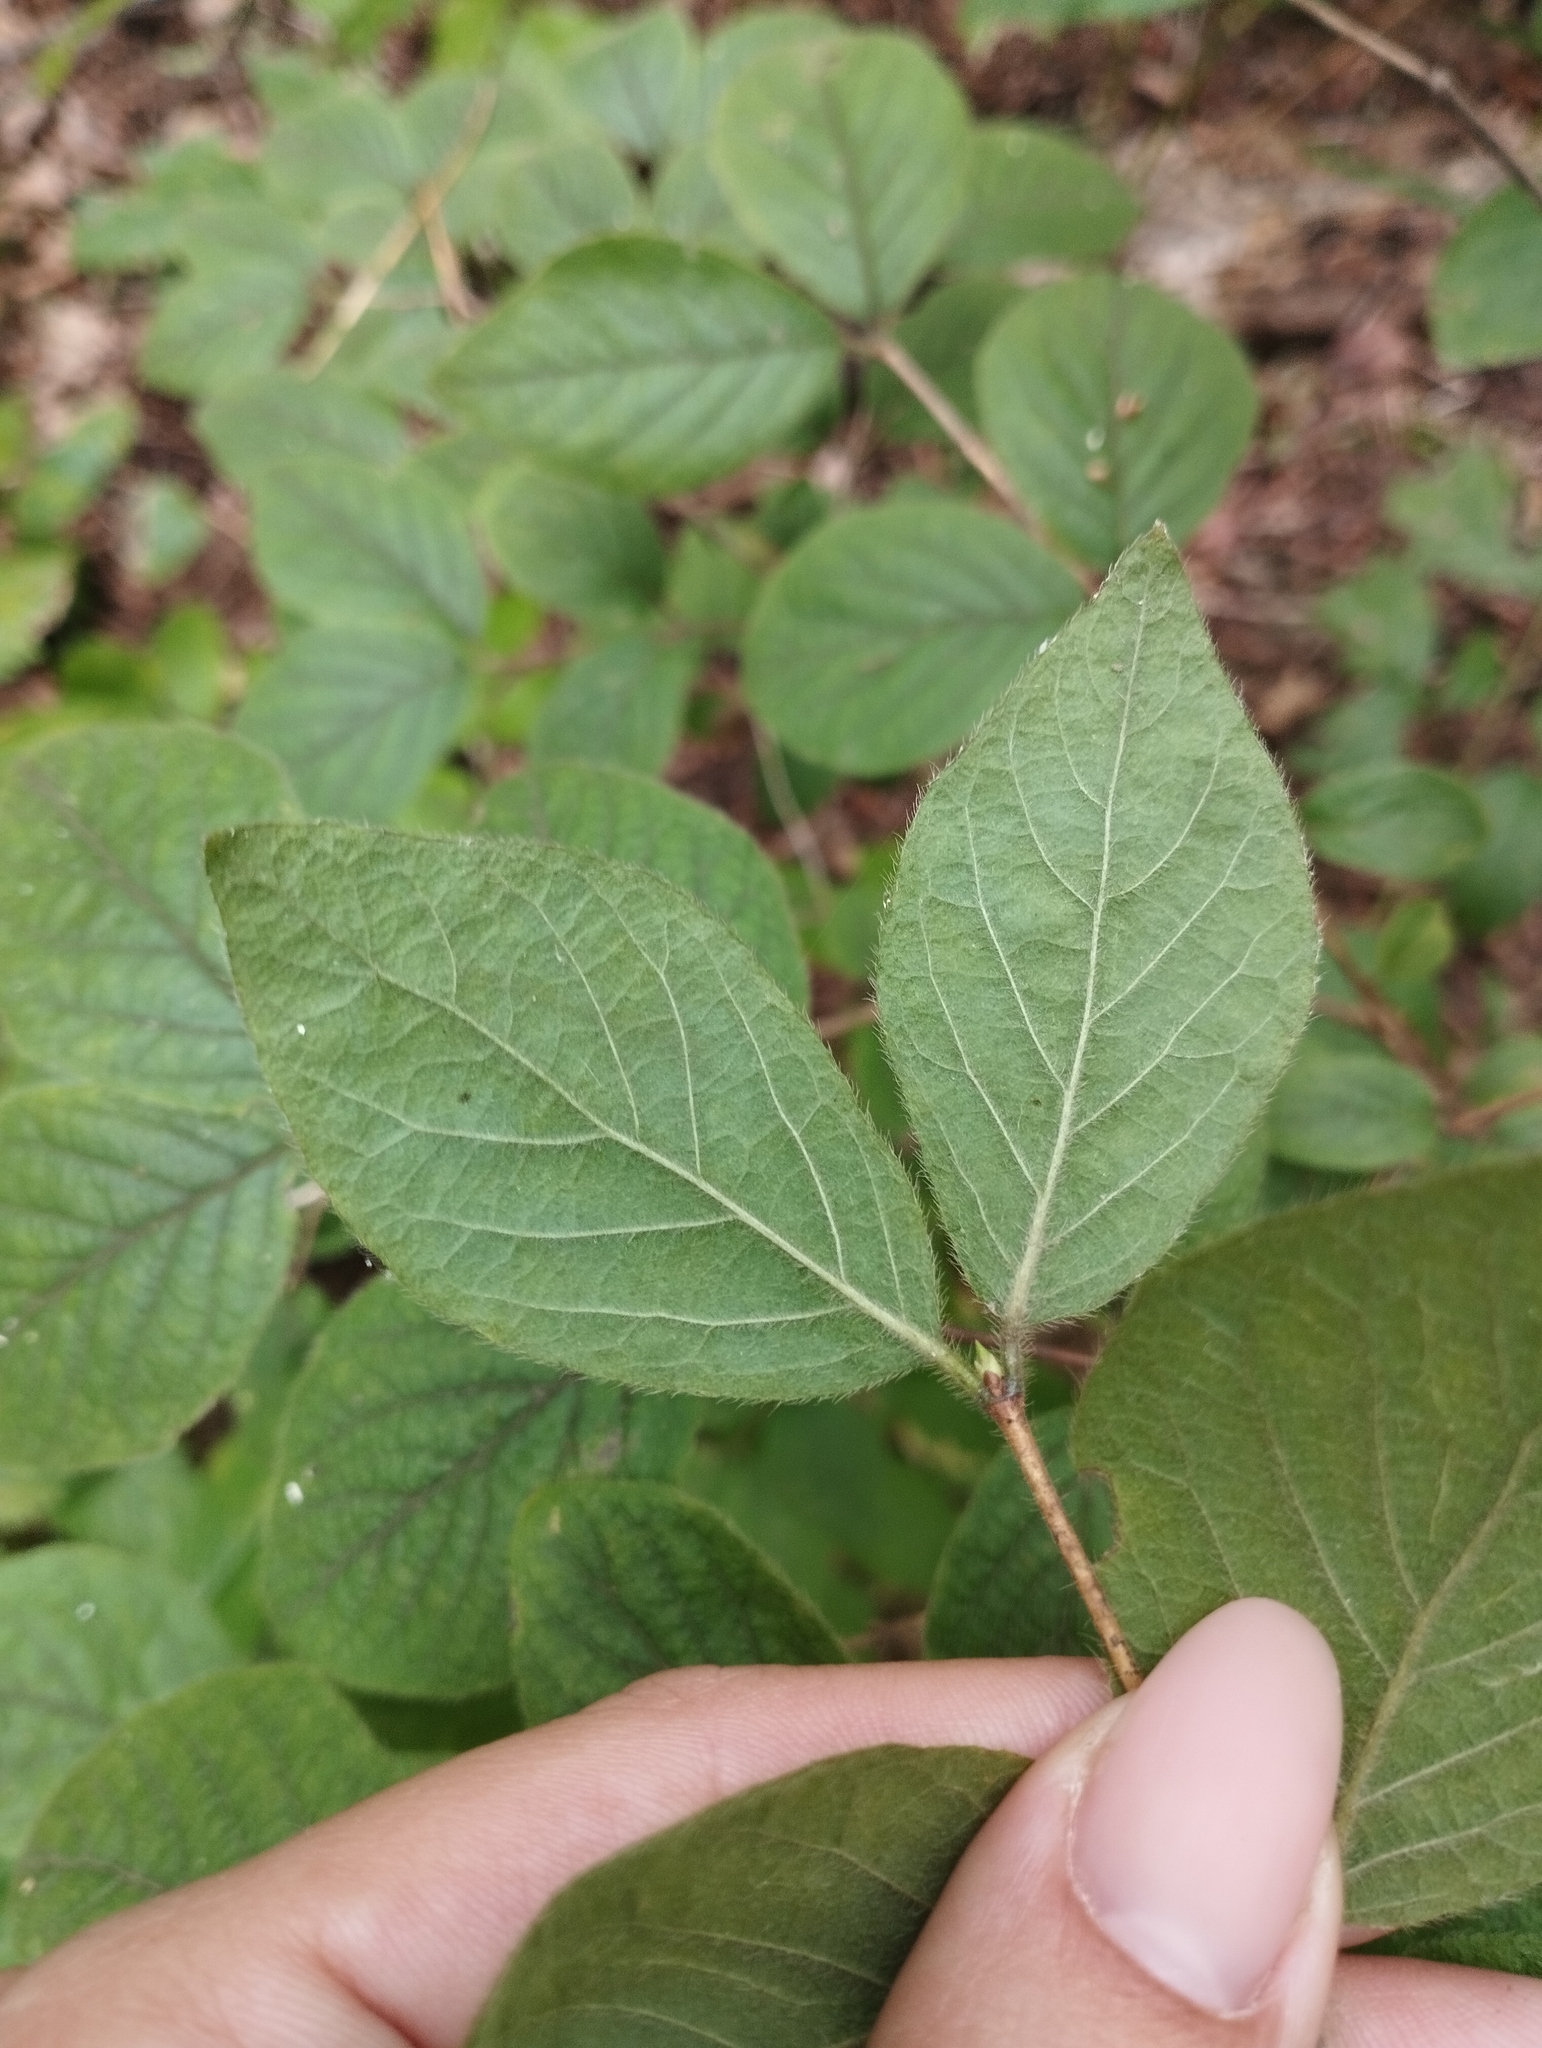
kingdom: Plantae
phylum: Tracheophyta
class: Magnoliopsida
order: Dipsacales
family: Caprifoliaceae
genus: Lonicera
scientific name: Lonicera praeflorens
